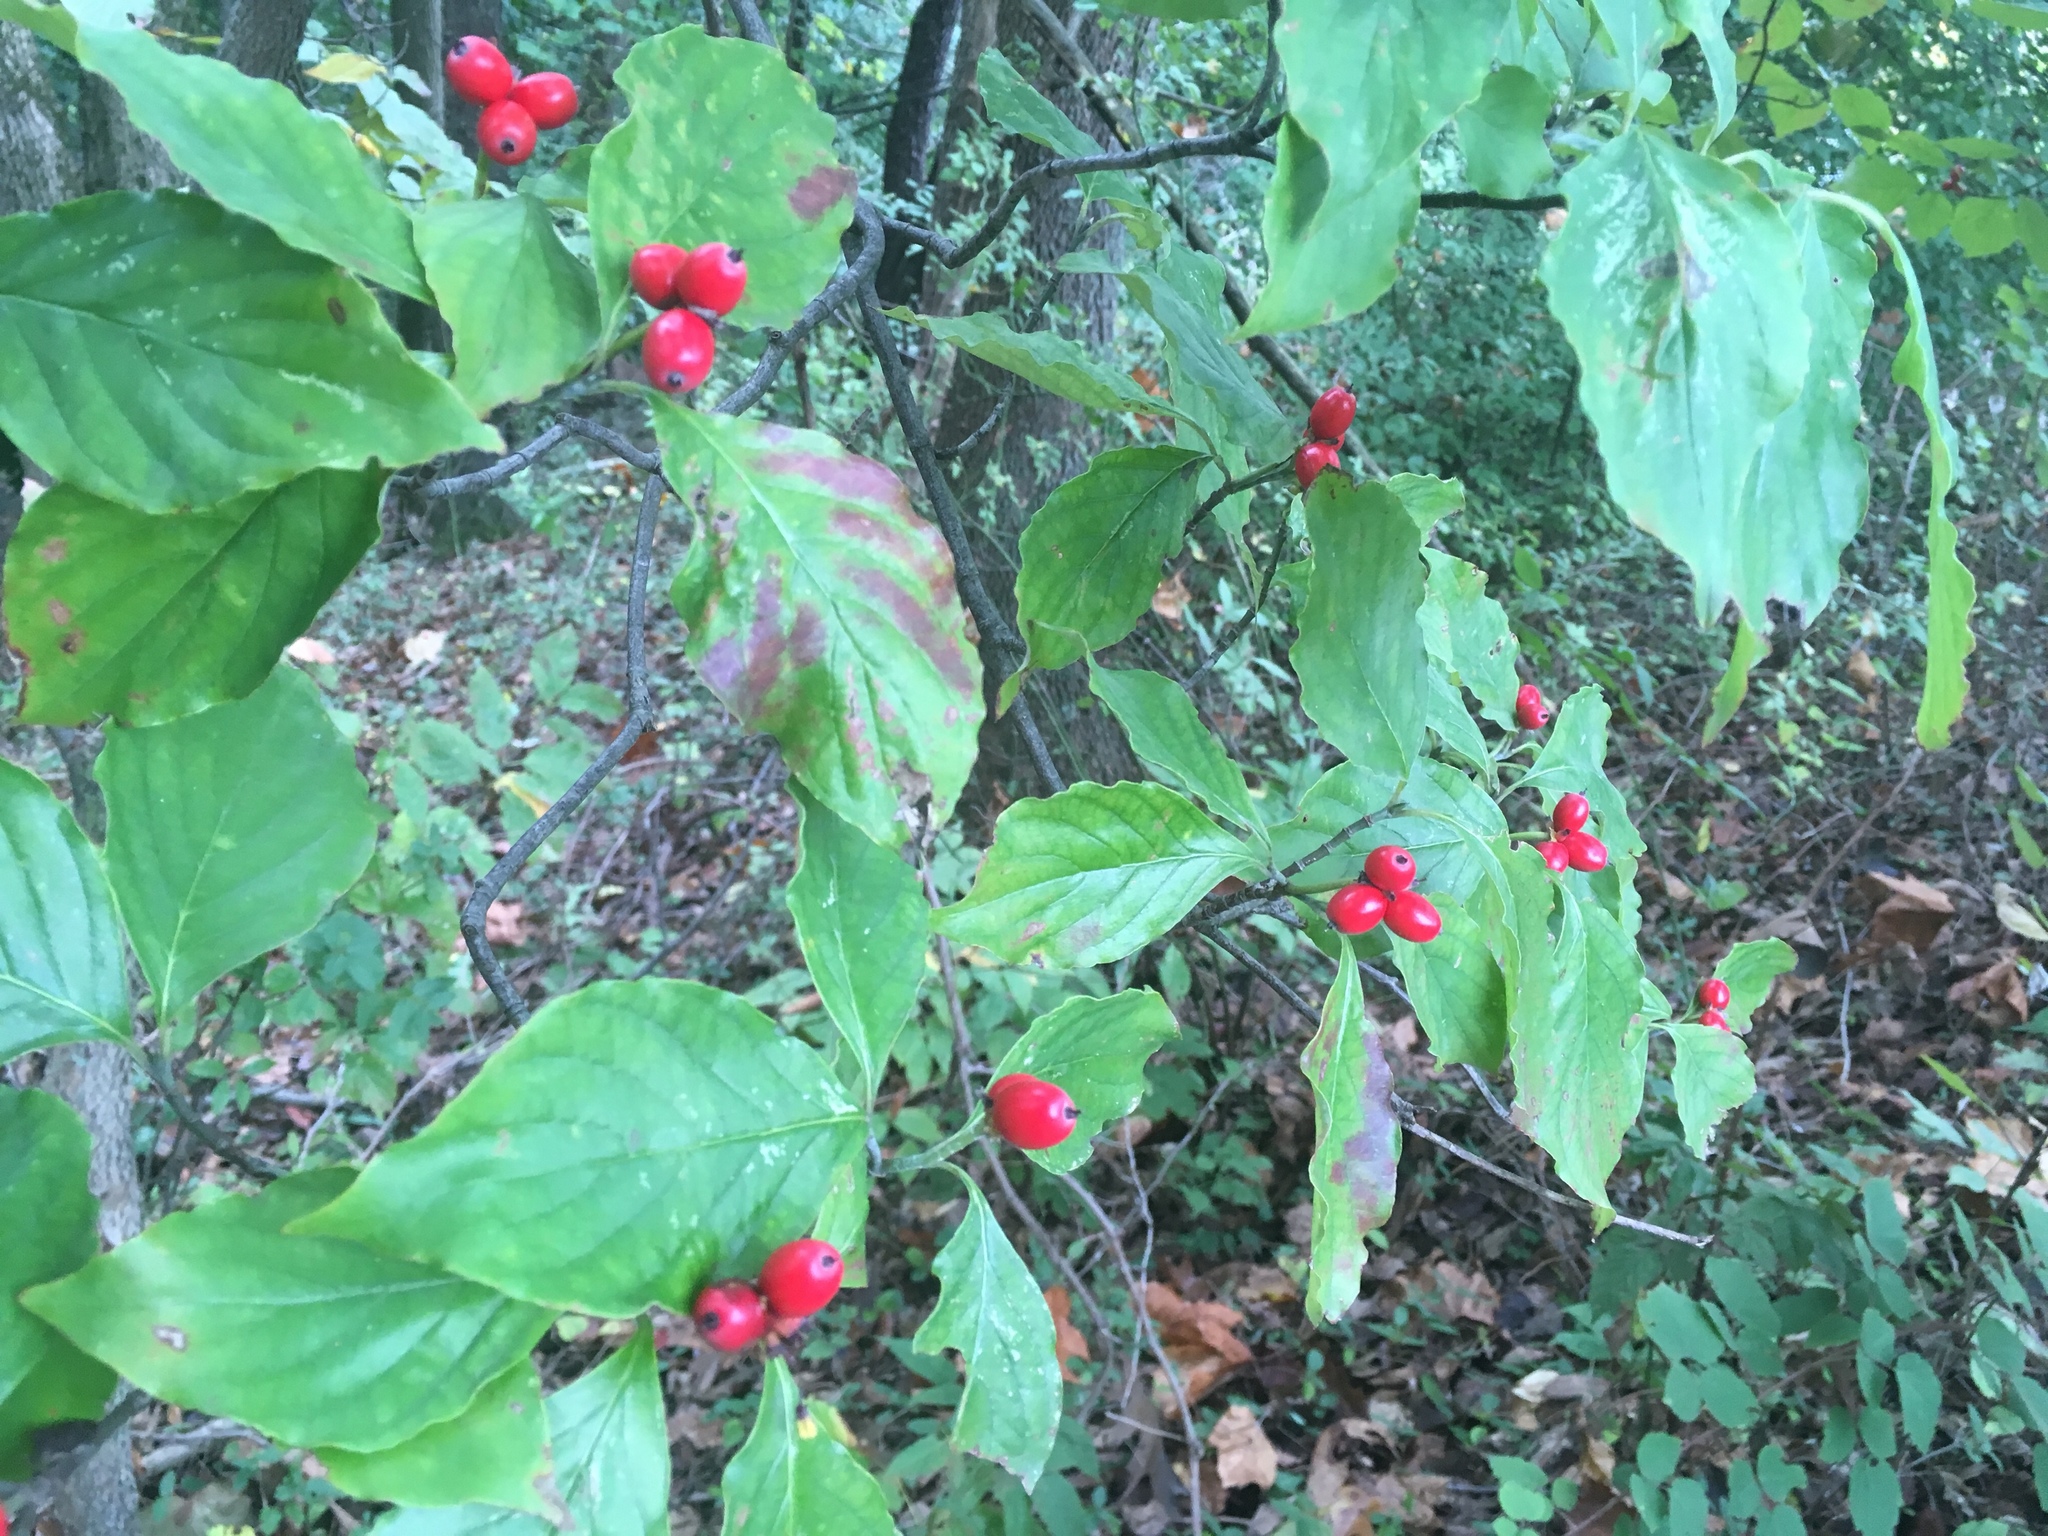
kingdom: Plantae
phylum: Tracheophyta
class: Magnoliopsida
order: Cornales
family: Cornaceae
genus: Cornus
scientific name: Cornus florida
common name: Flowering dogwood
